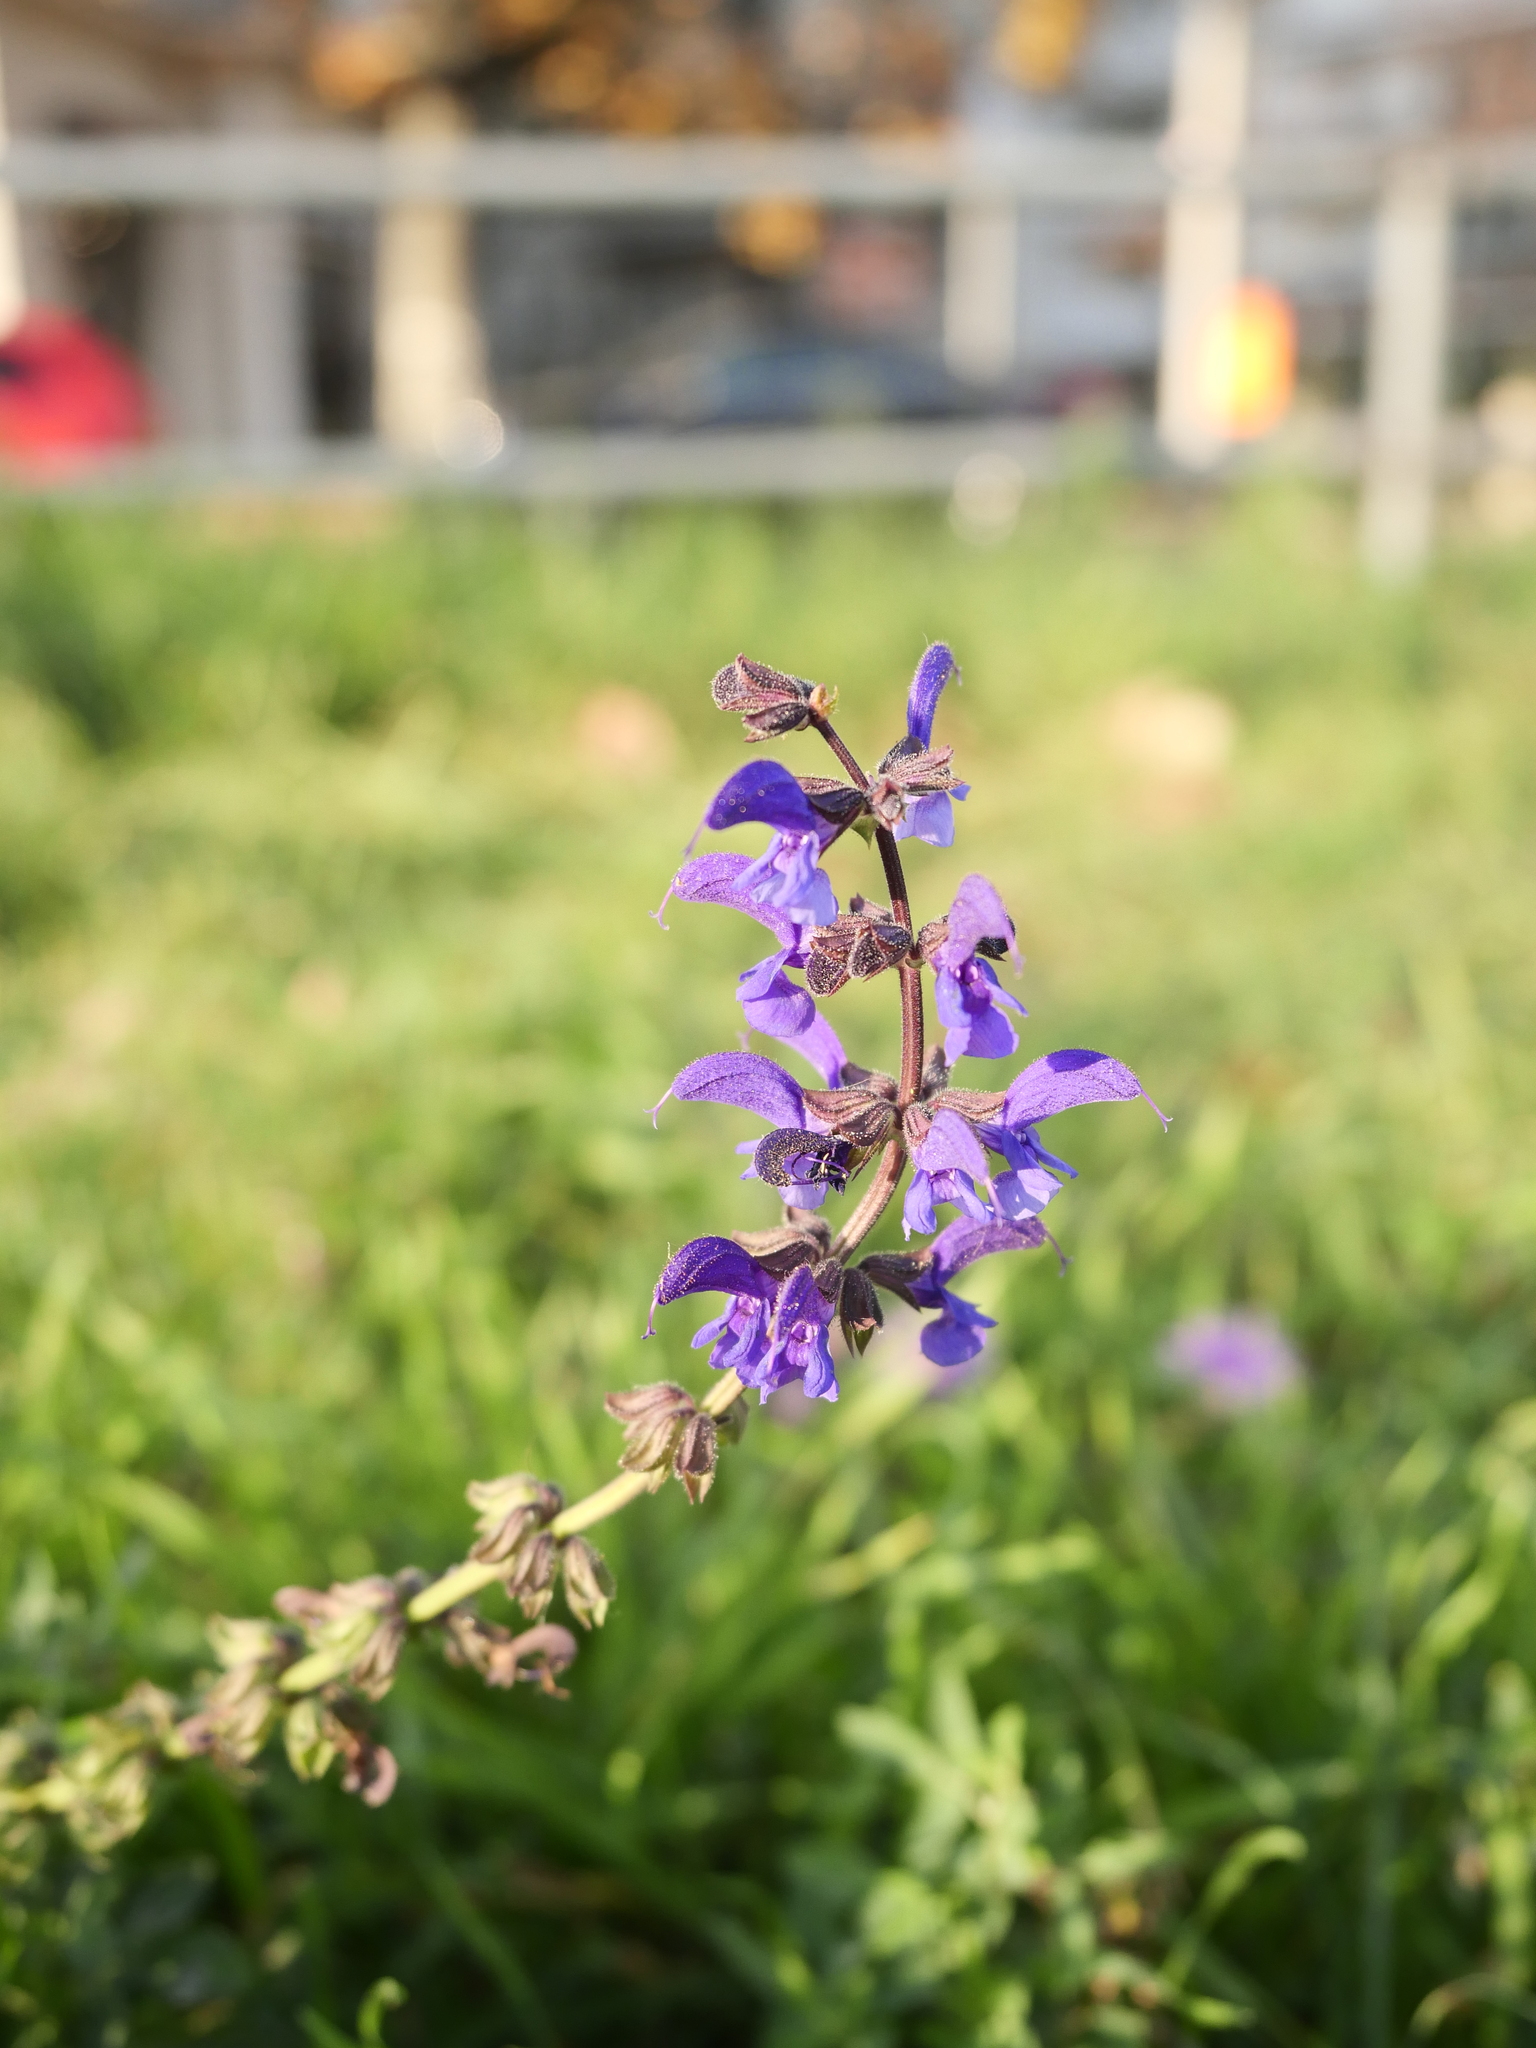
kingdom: Plantae
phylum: Tracheophyta
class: Magnoliopsida
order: Lamiales
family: Lamiaceae
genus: Salvia
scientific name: Salvia pratensis
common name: Meadow sage
